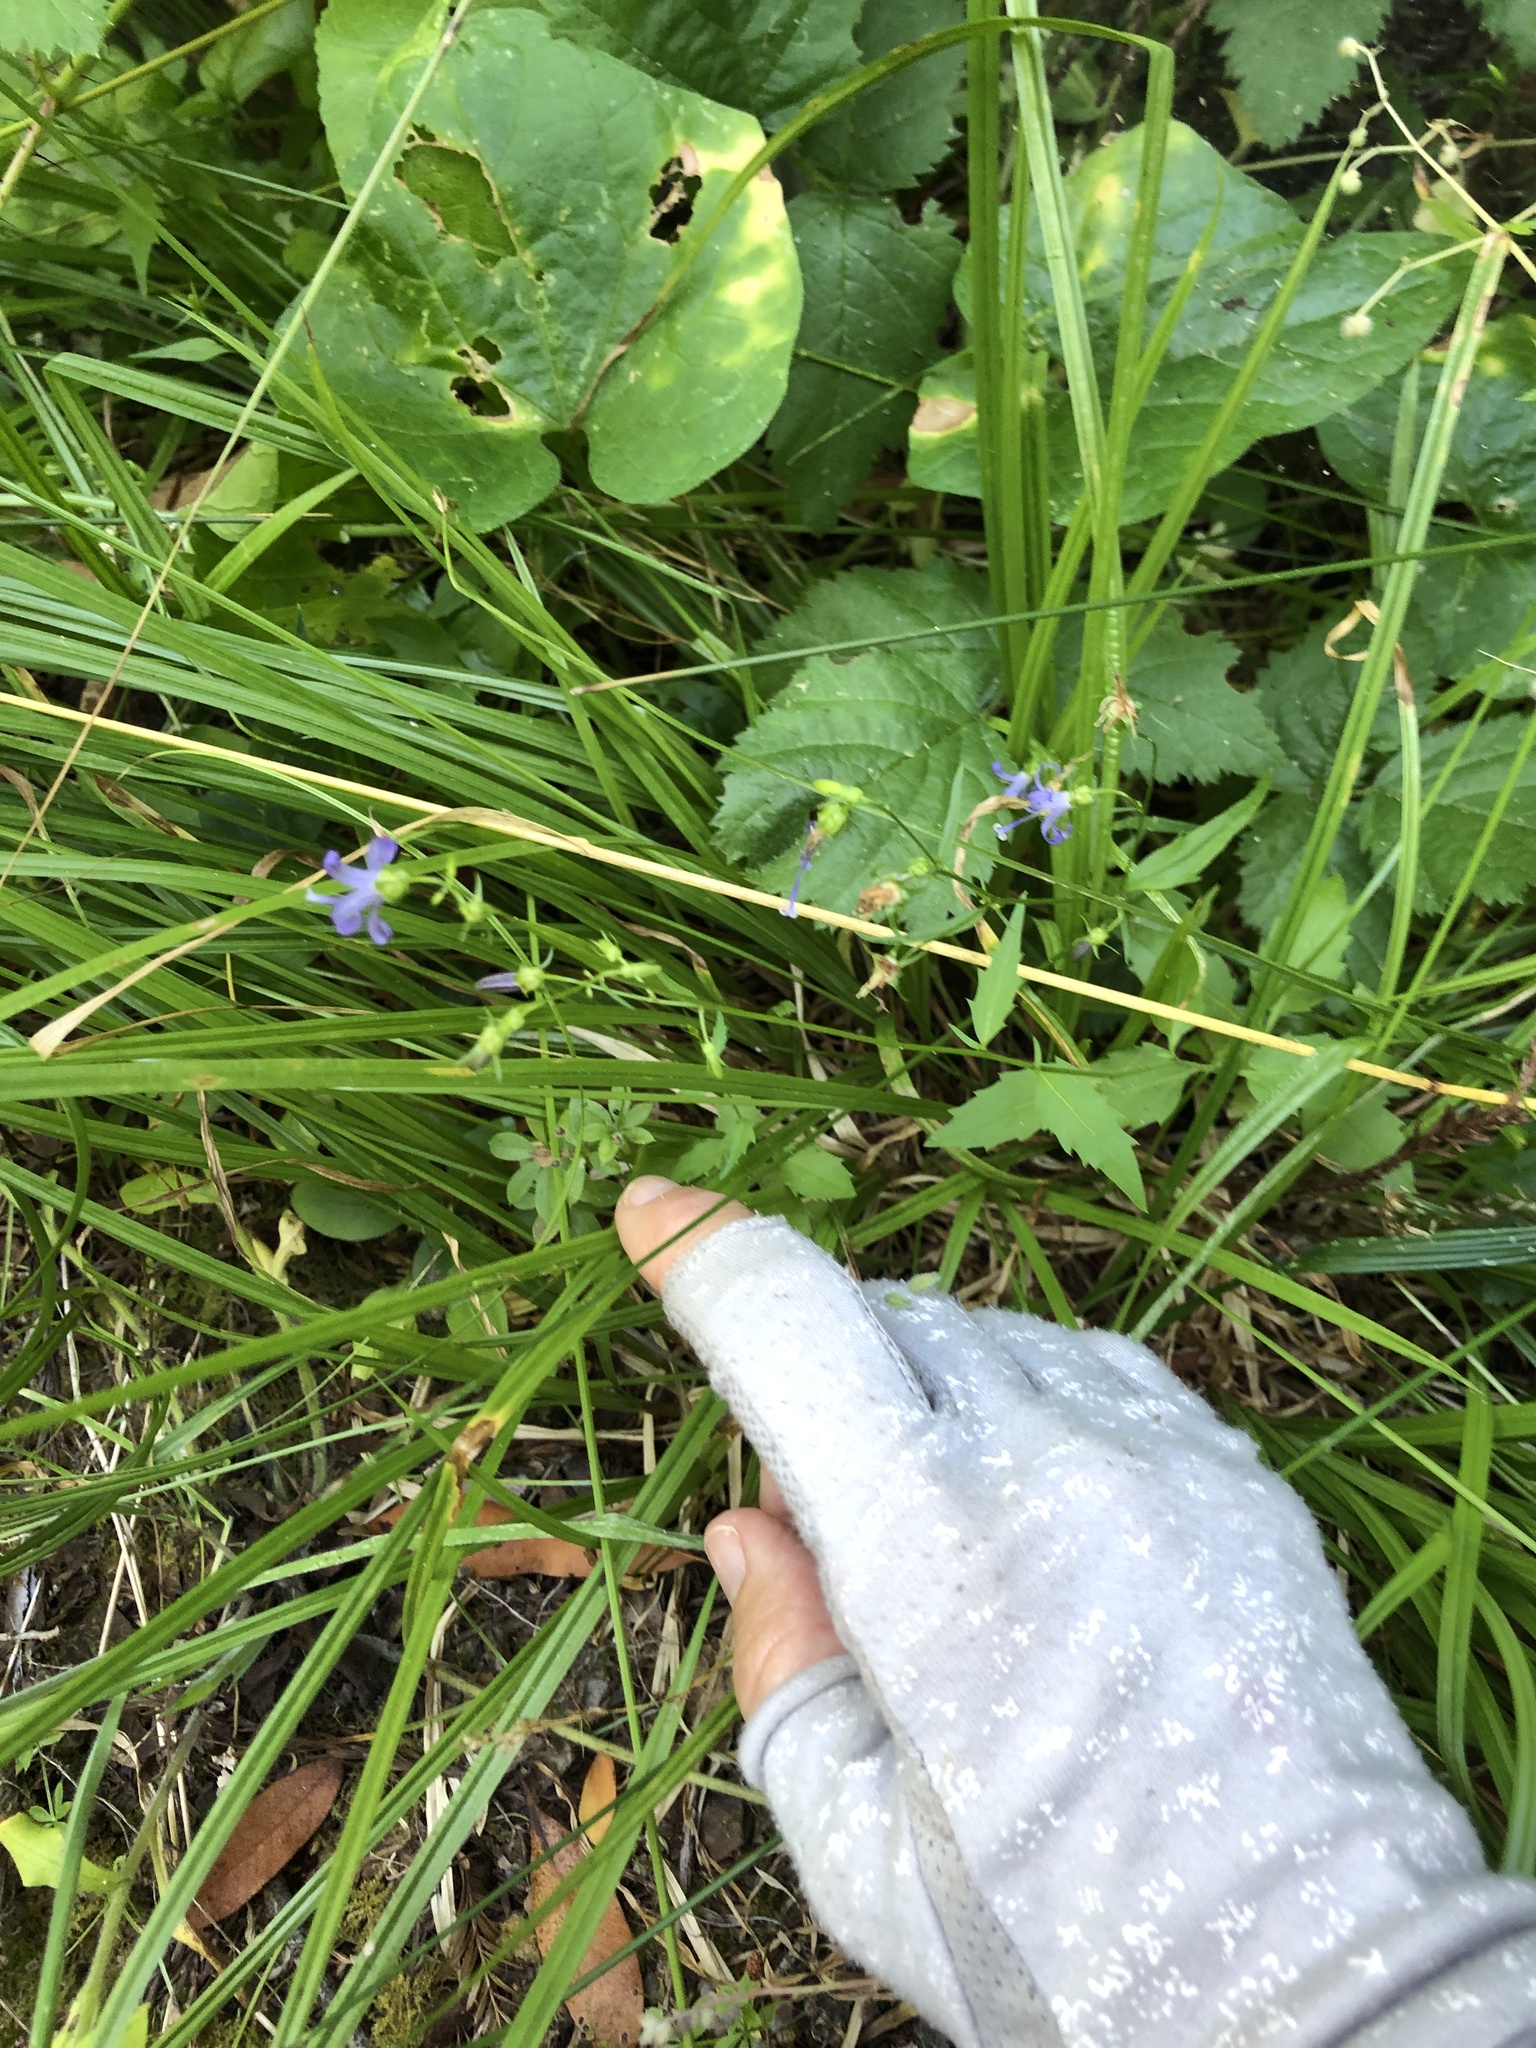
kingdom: Plantae
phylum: Tracheophyta
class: Magnoliopsida
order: Asterales
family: Campanulaceae
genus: Smithiastrum
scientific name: Smithiastrum prenanthoides
